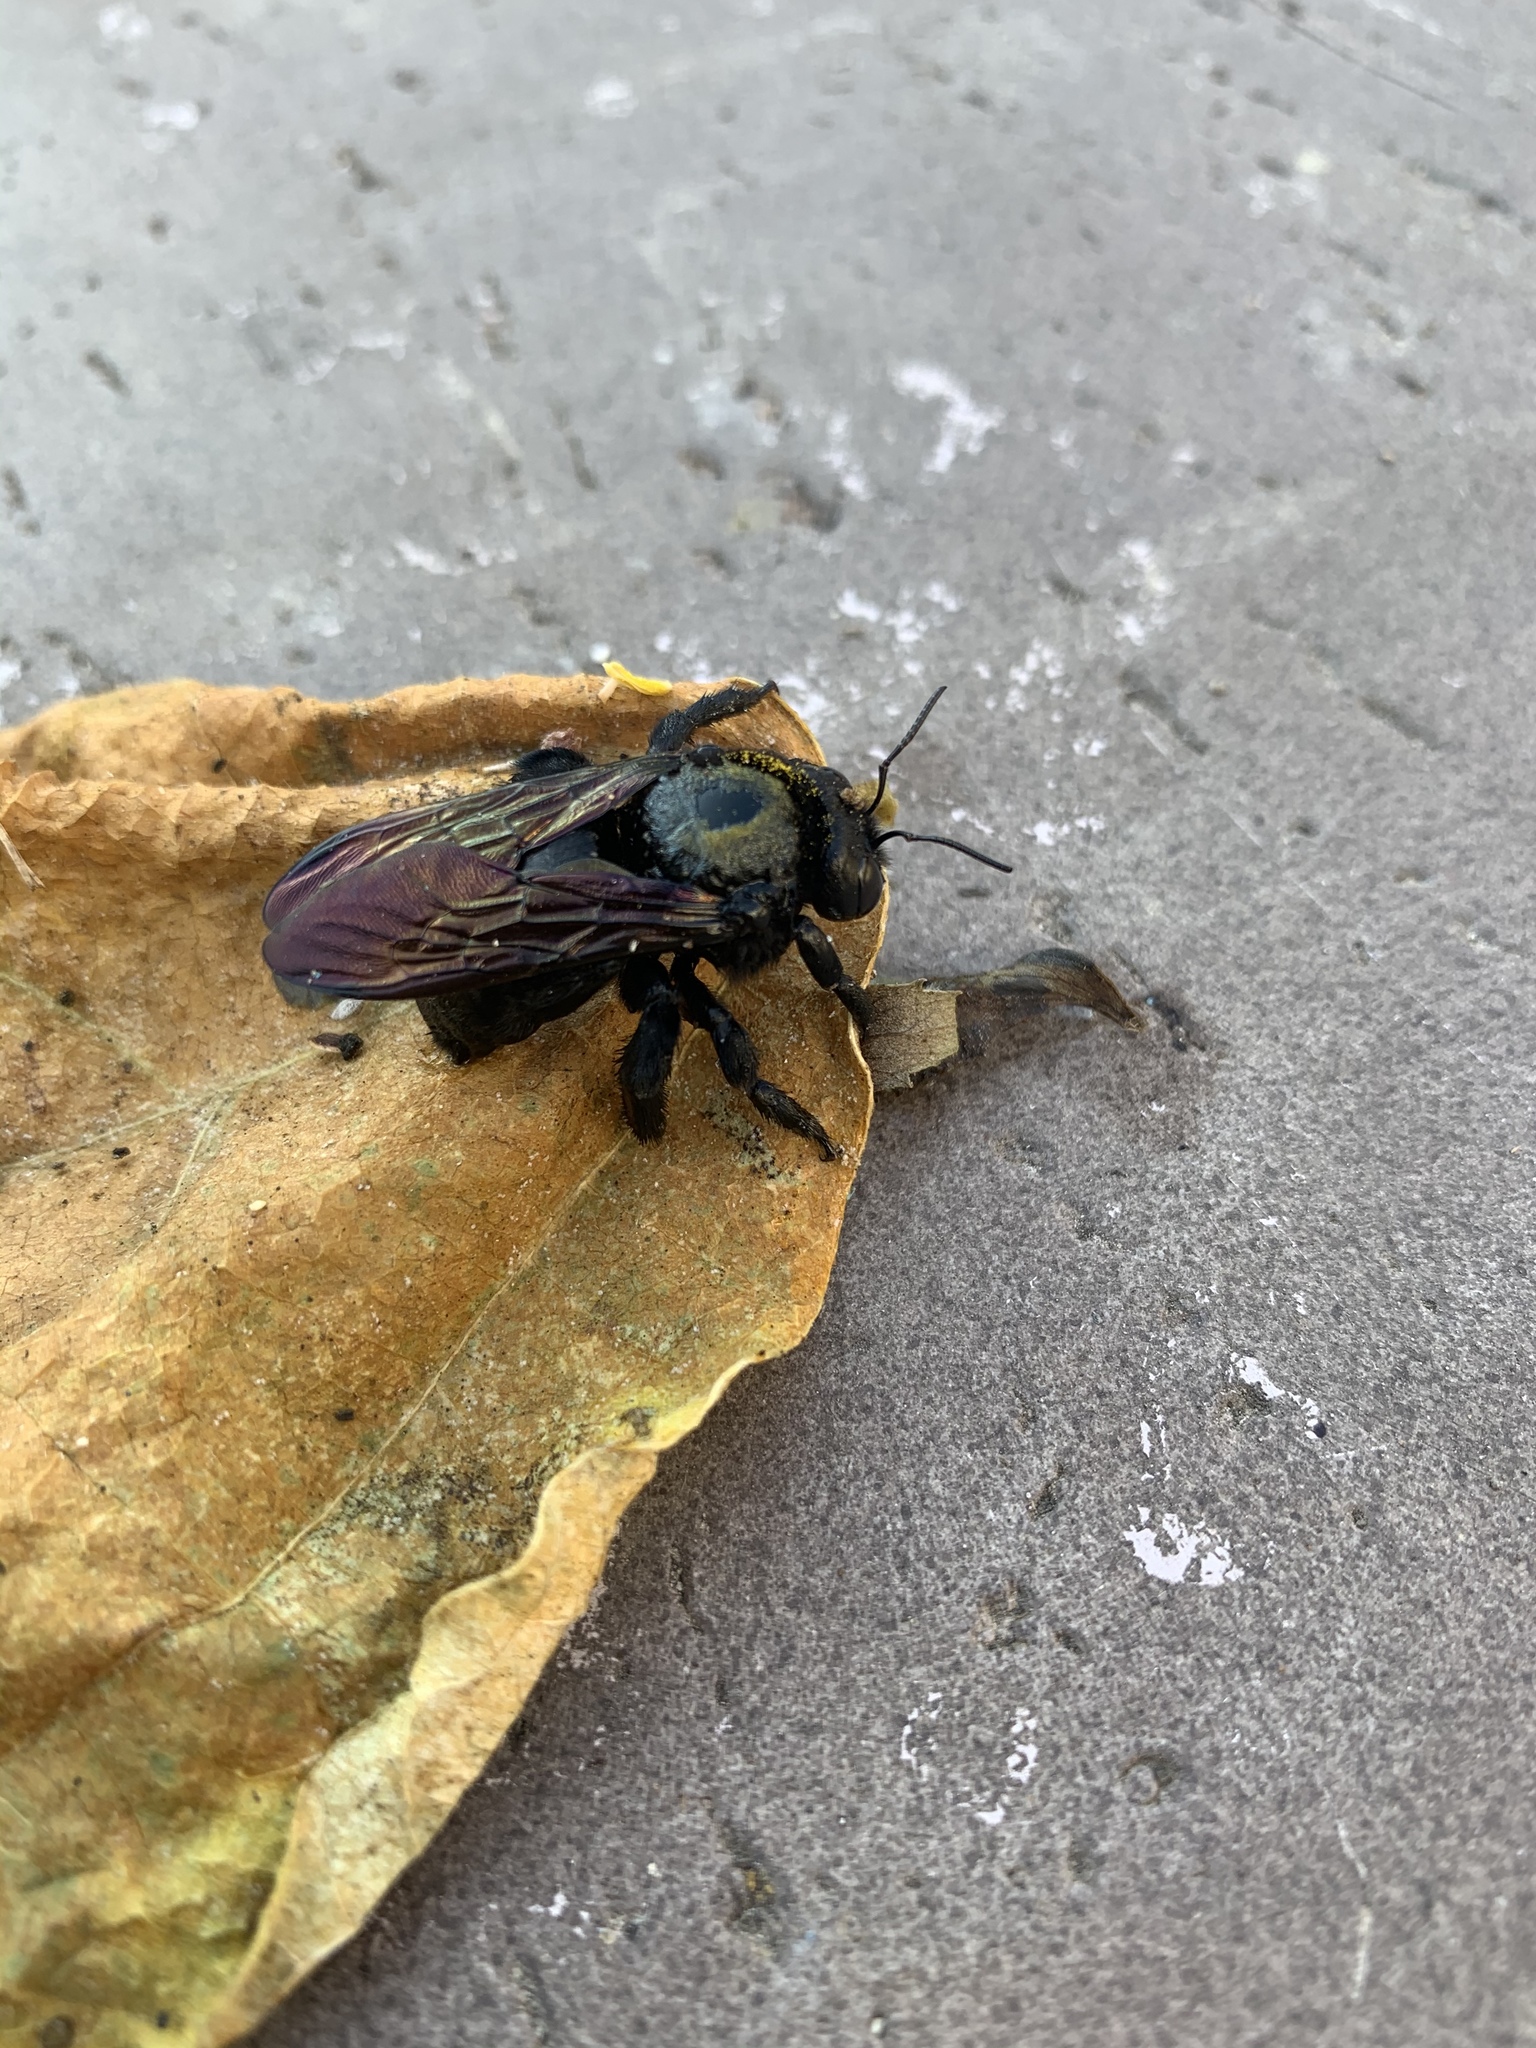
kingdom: Animalia
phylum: Arthropoda
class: Insecta
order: Hymenoptera
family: Apidae
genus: Xylocopa
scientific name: Xylocopa sonorina
